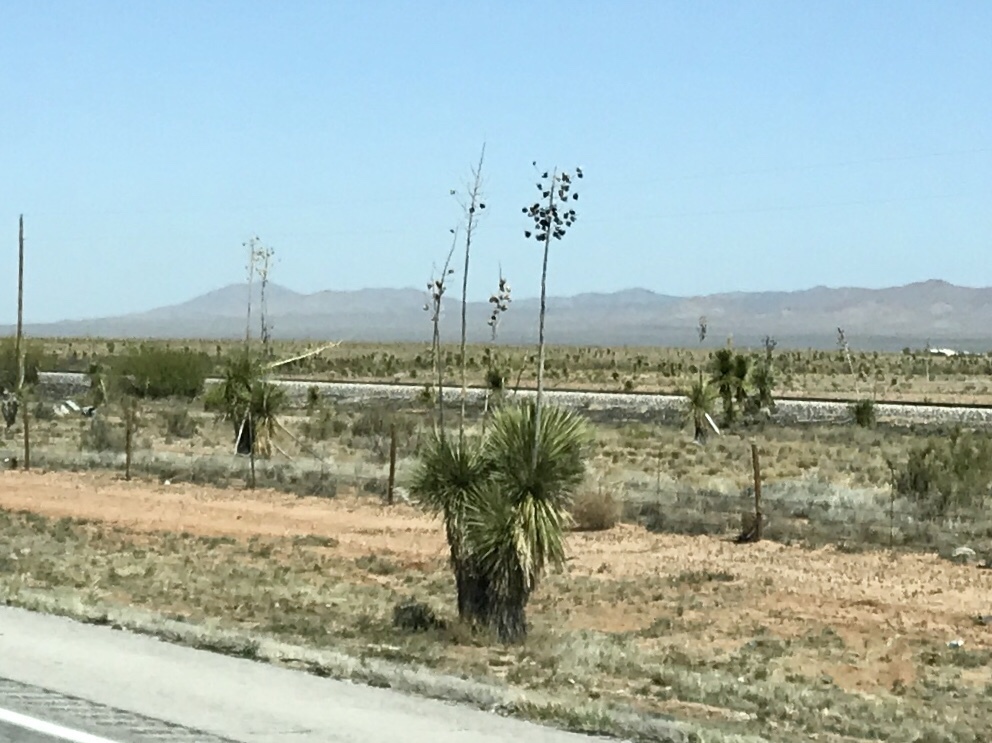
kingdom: Plantae
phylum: Tracheophyta
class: Liliopsida
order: Asparagales
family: Asparagaceae
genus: Yucca
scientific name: Yucca elata
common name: Palmella
